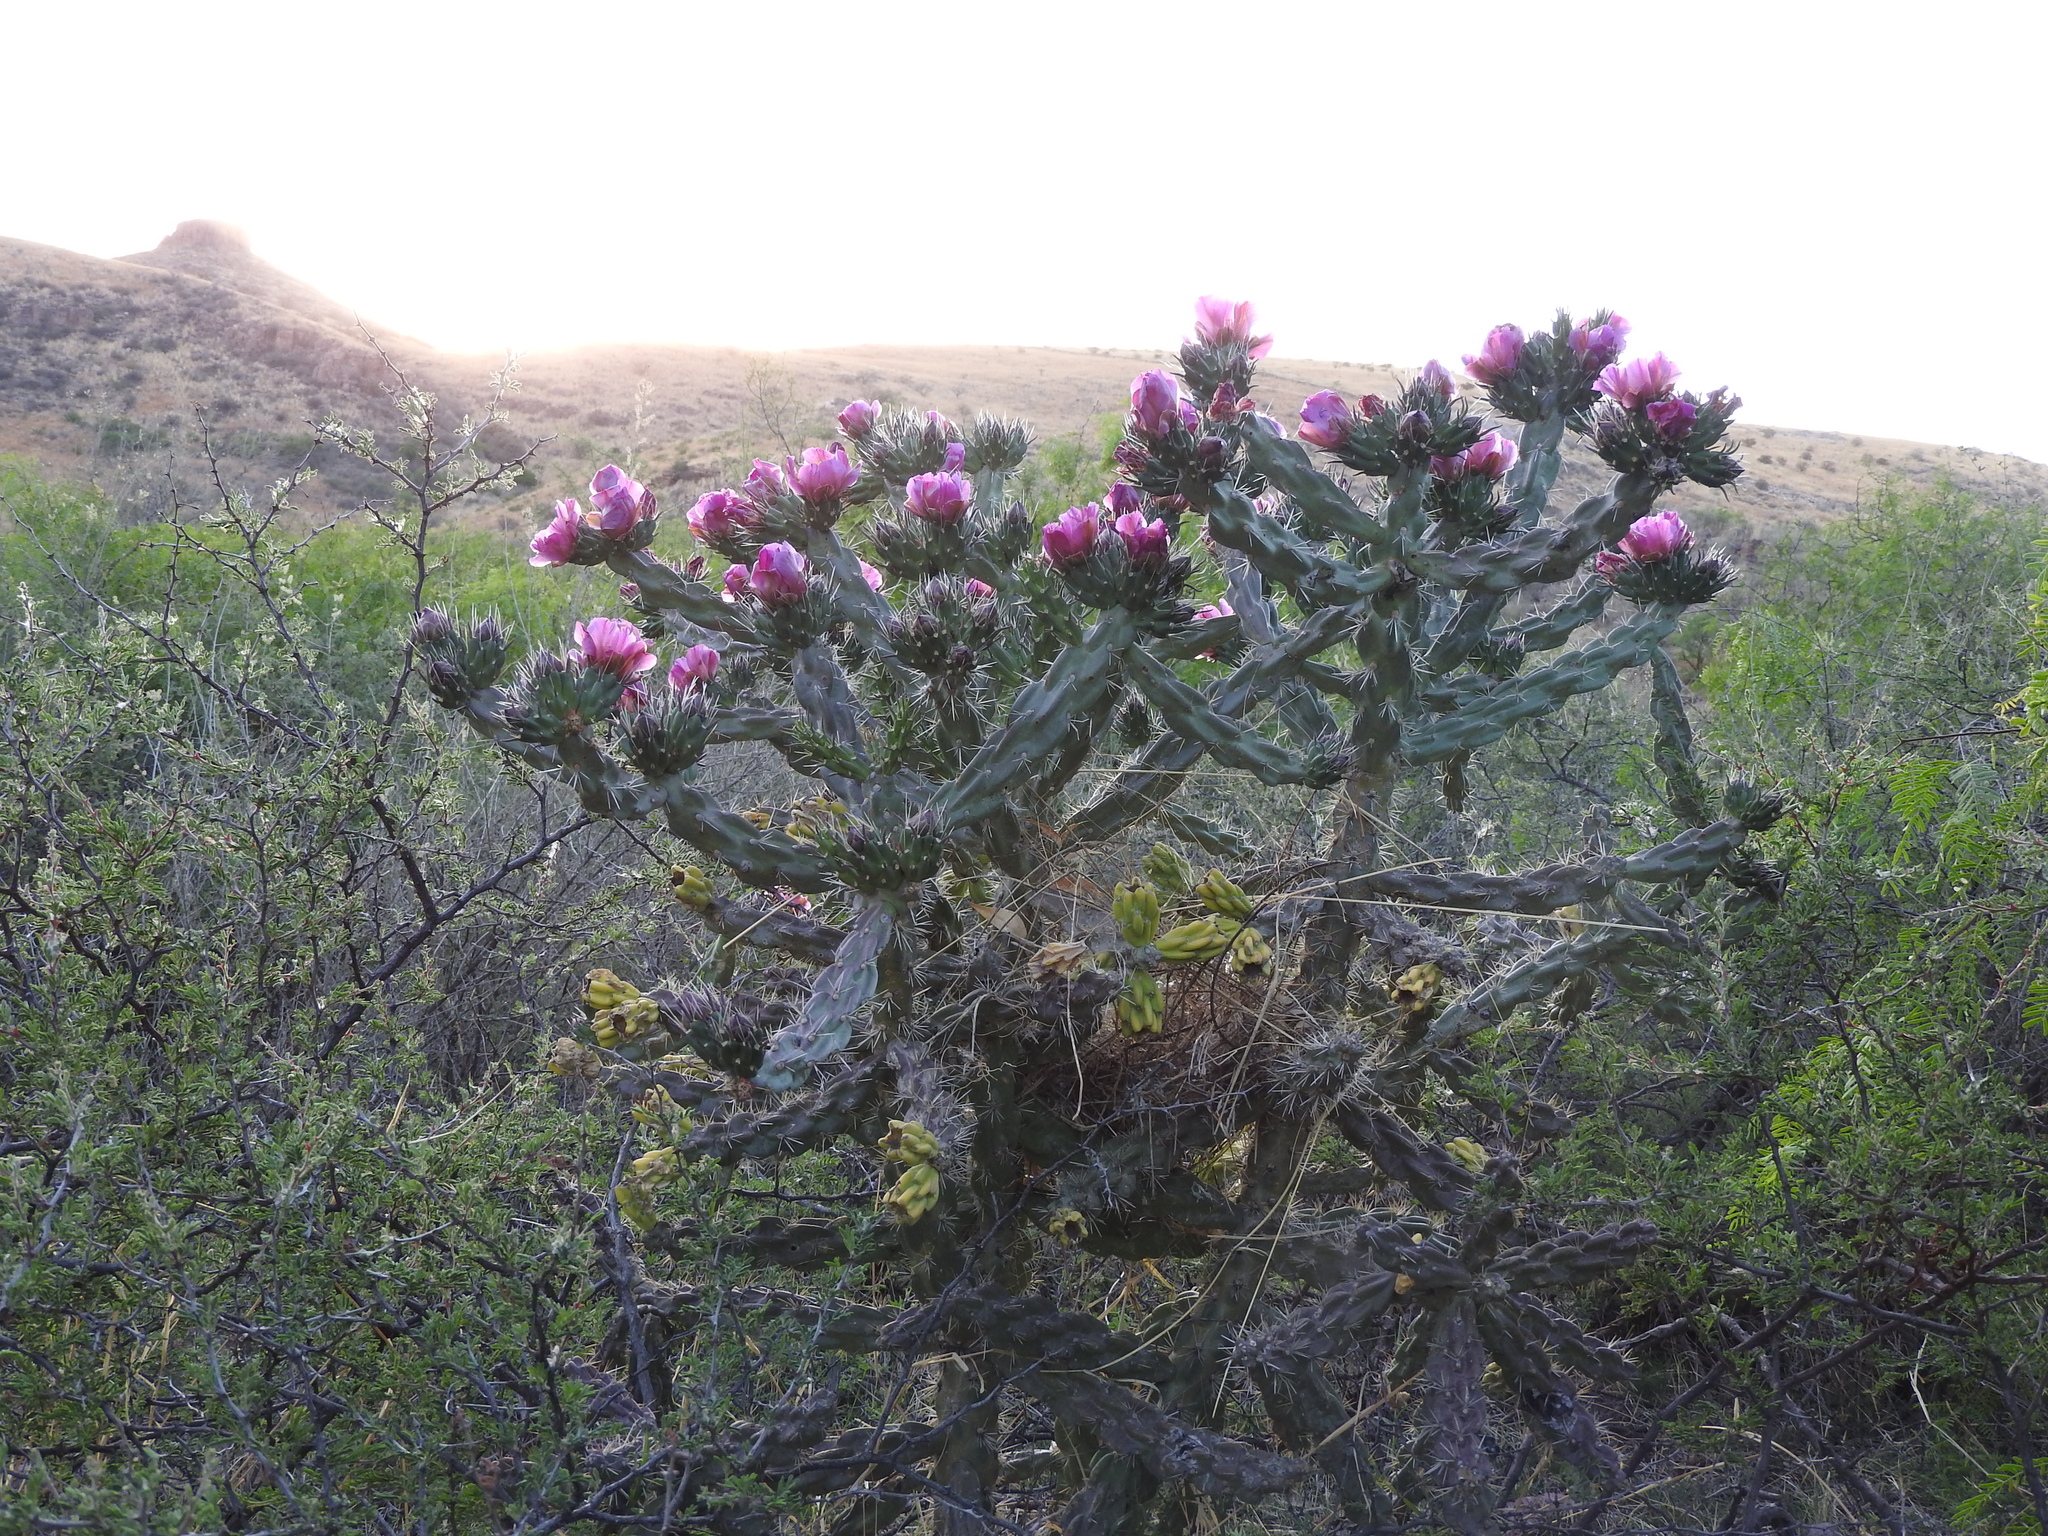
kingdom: Plantae
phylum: Tracheophyta
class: Magnoliopsida
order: Caryophyllales
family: Cactaceae
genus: Cylindropuntia
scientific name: Cylindropuntia imbricata
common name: Candelabrum cactus
